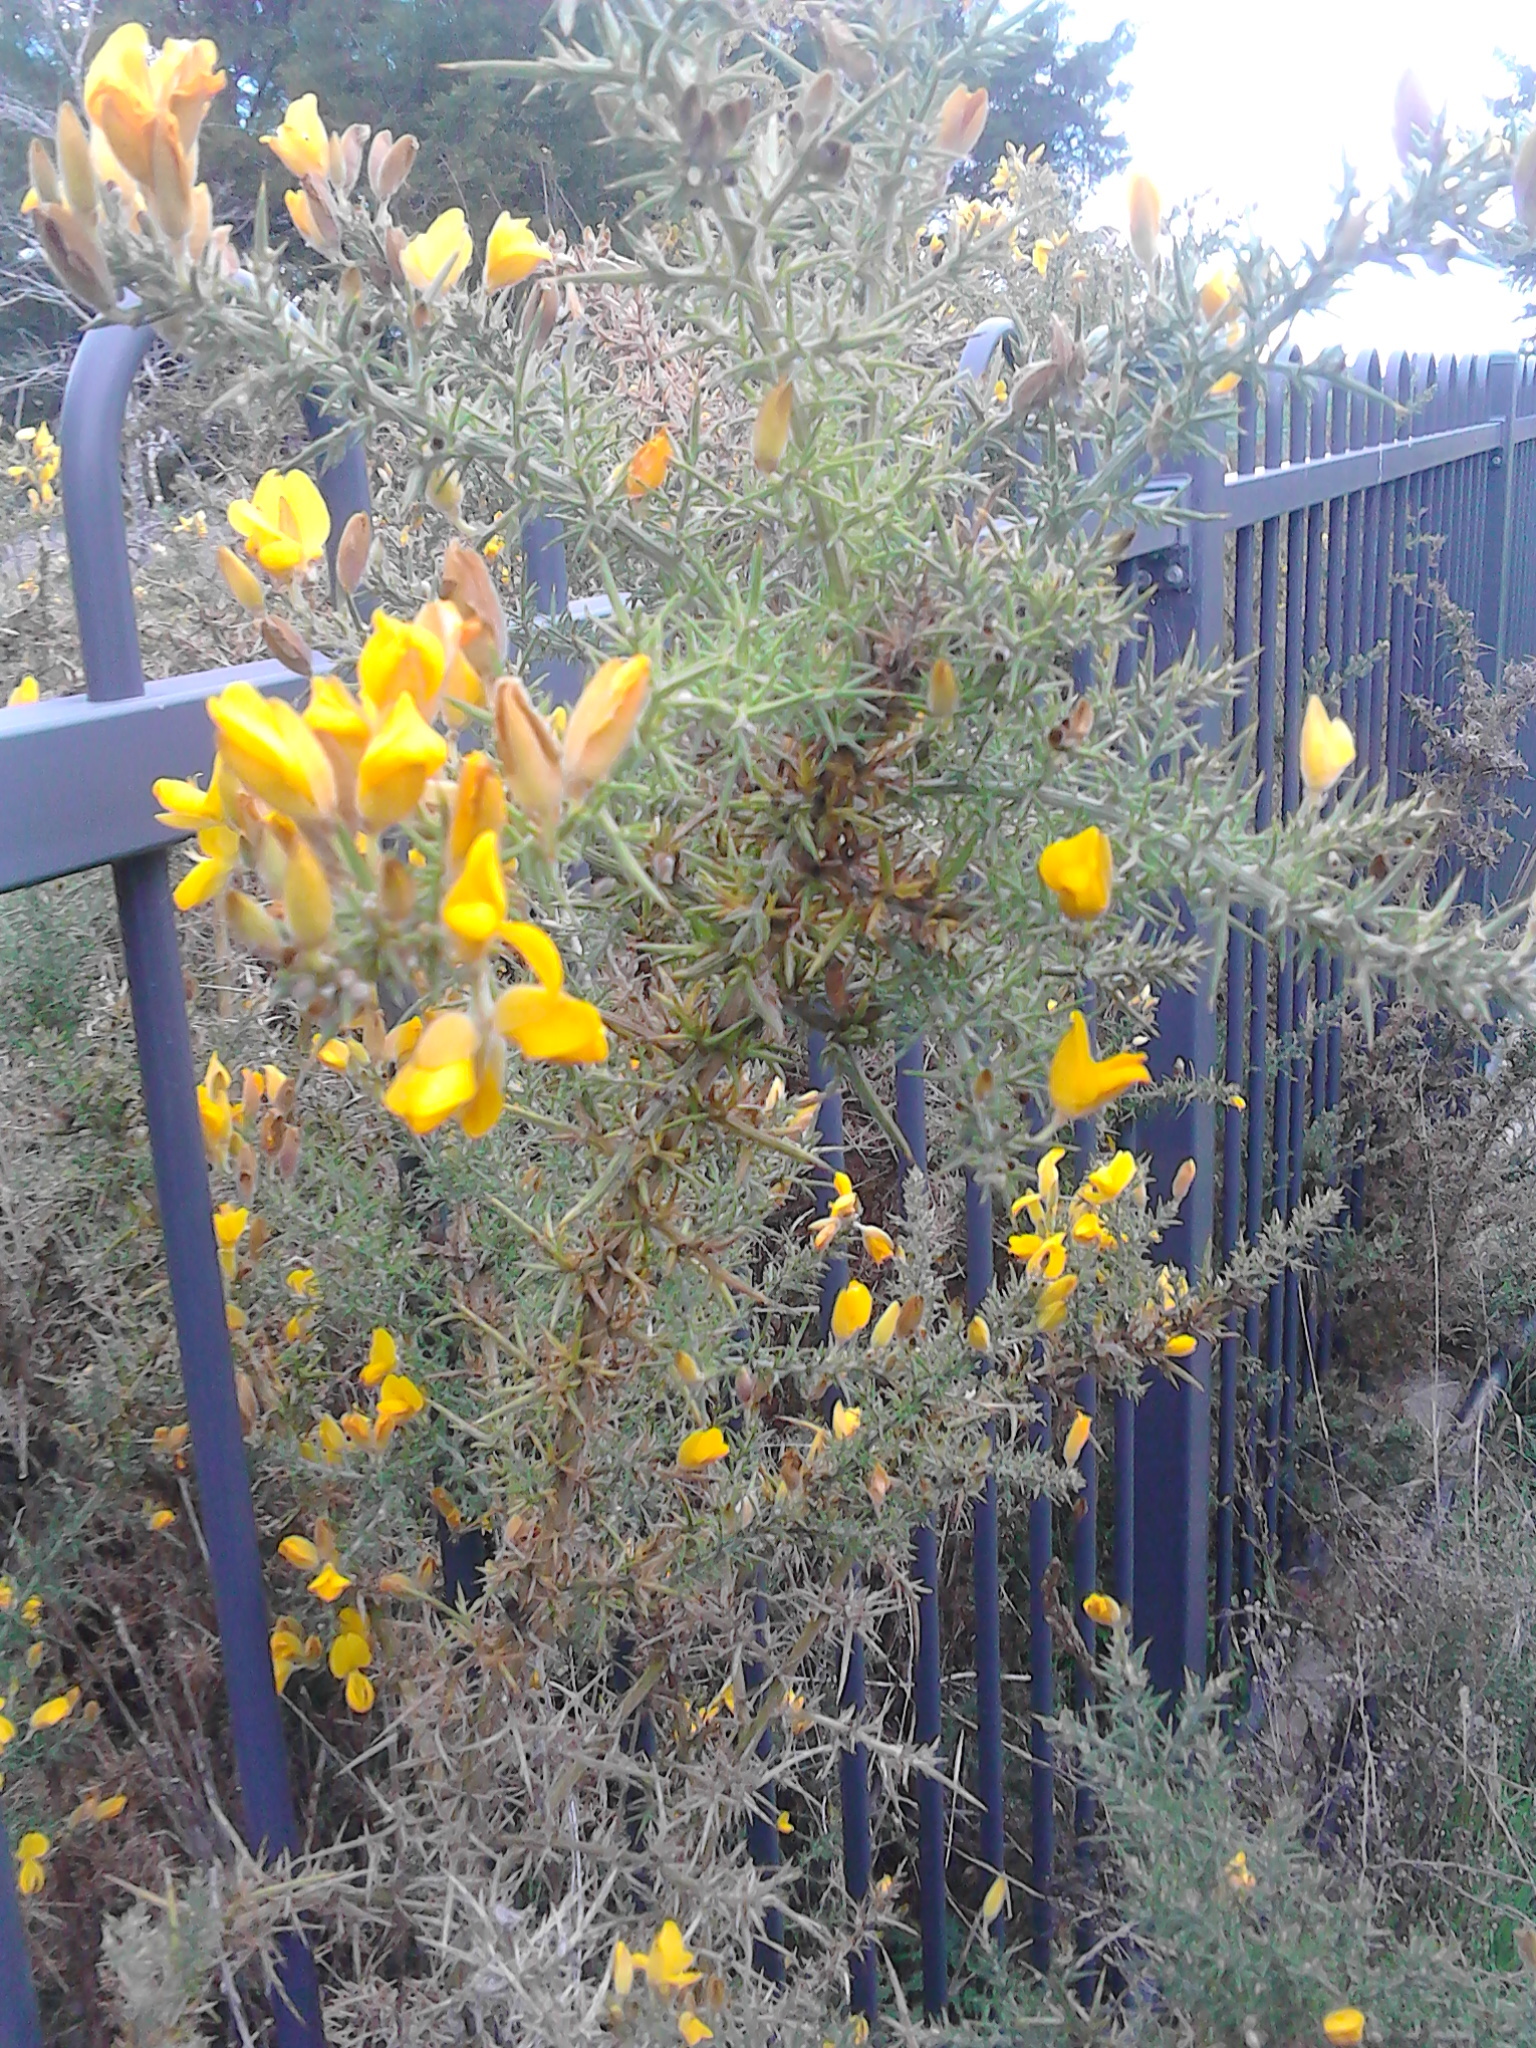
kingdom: Plantae
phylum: Tracheophyta
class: Magnoliopsida
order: Fabales
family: Fabaceae
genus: Ulex
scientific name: Ulex europaeus
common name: Common gorse
